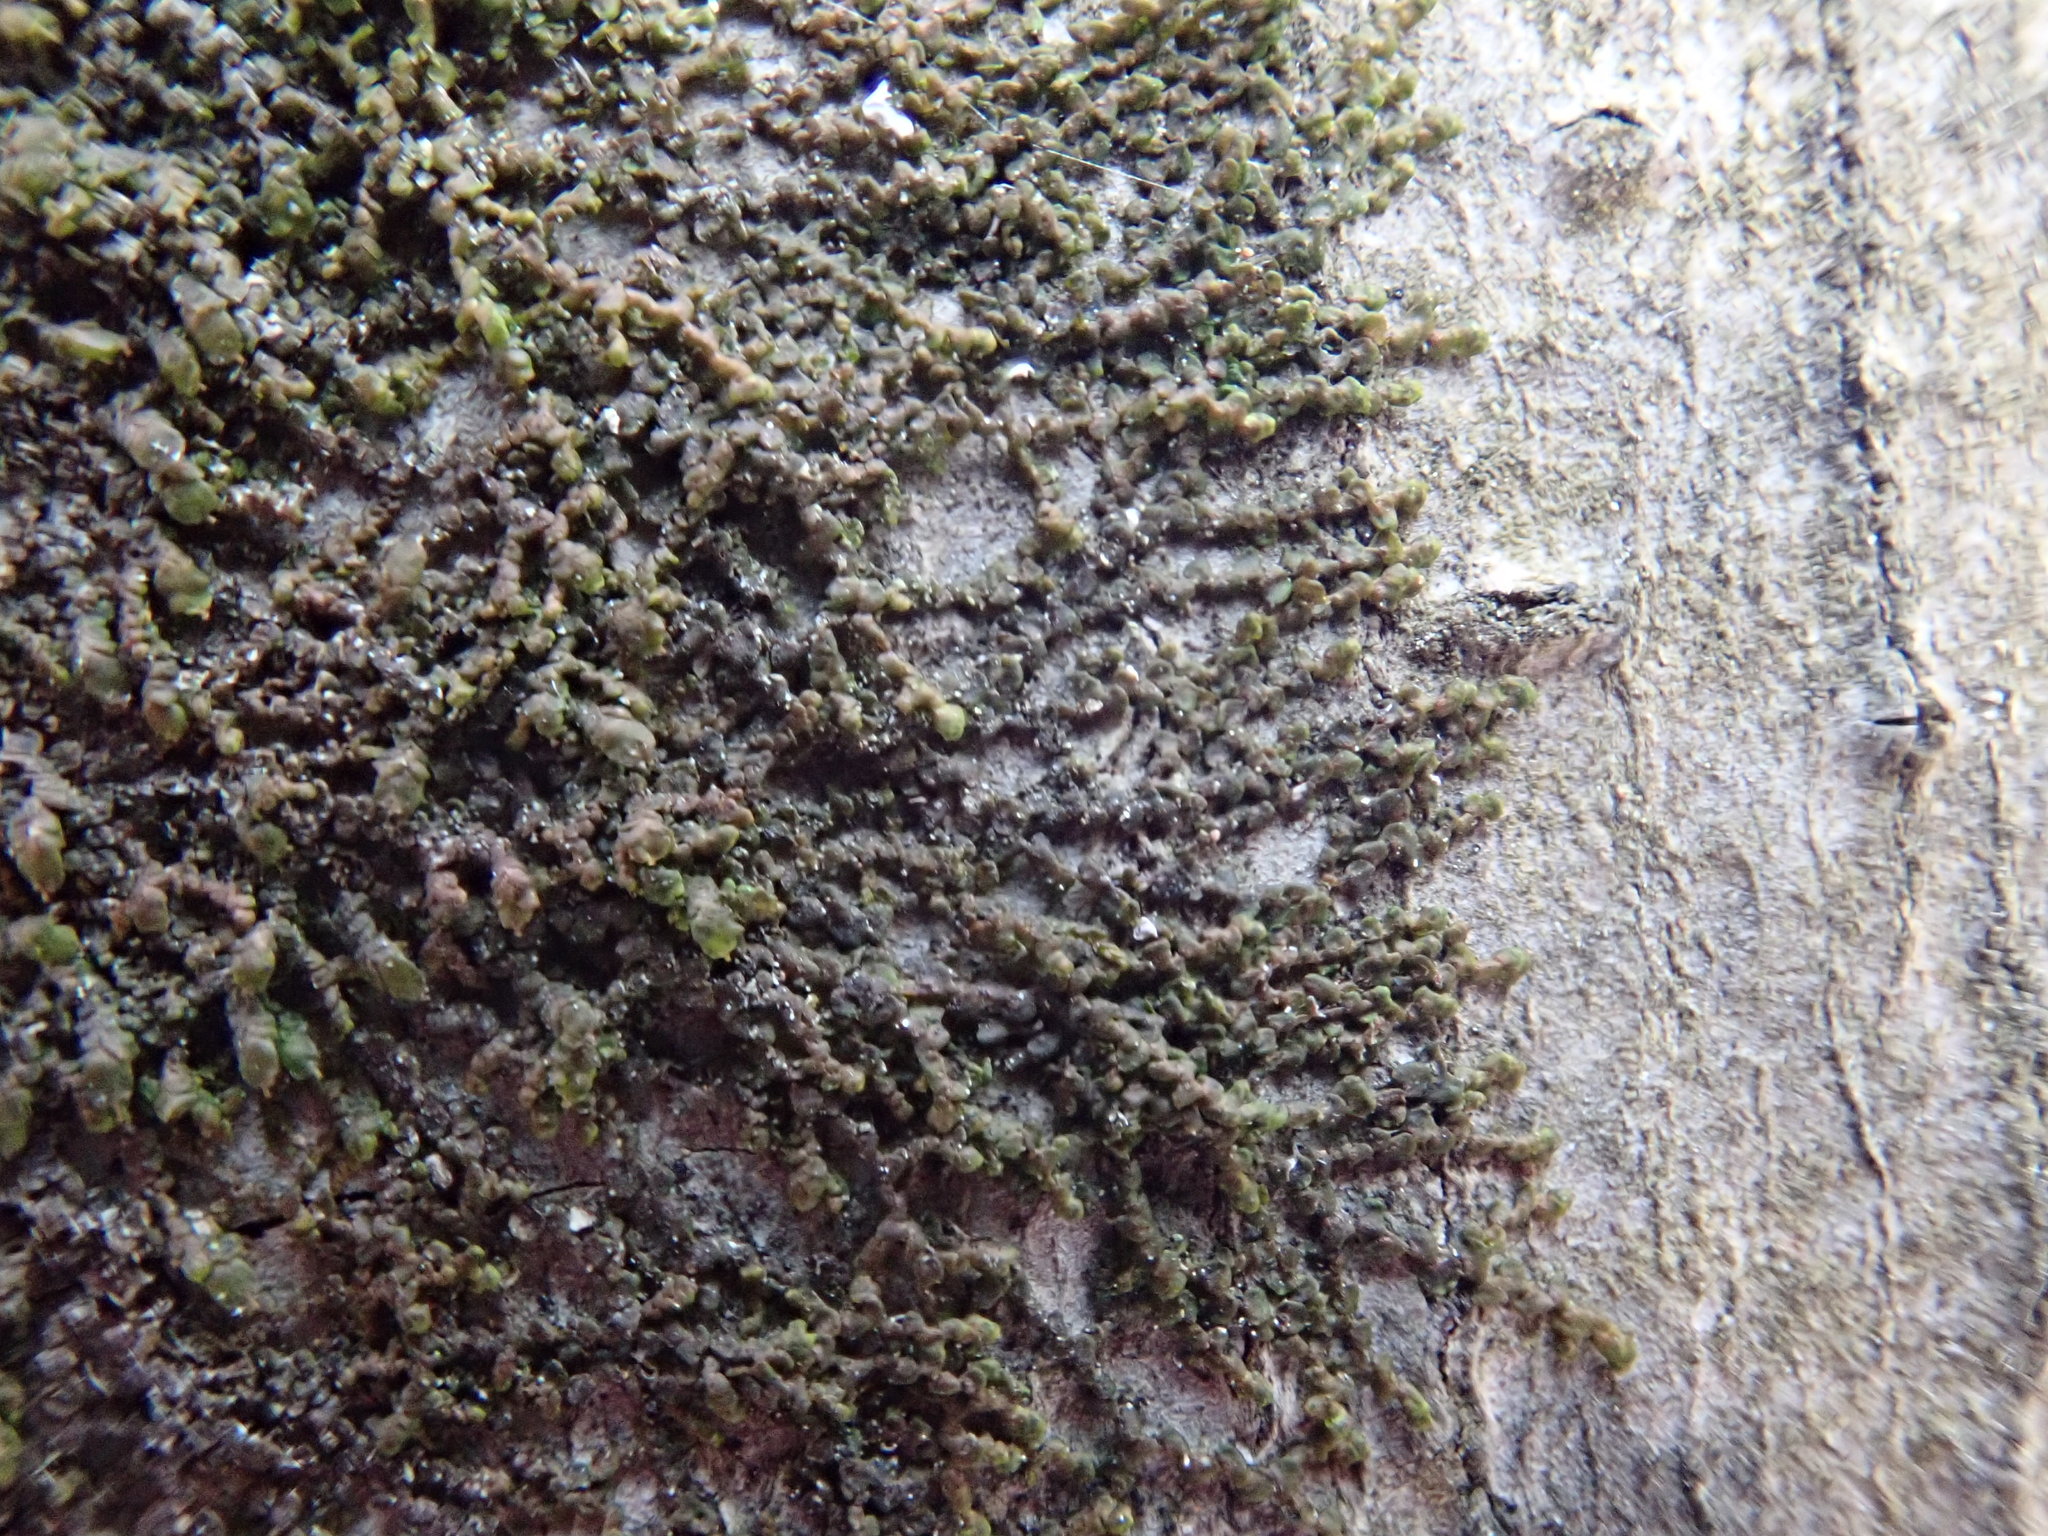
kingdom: Plantae
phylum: Marchantiophyta
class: Jungermanniopsida
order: Porellales
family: Frullaniaceae
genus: Frullania
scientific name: Frullania eboracensis
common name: New york scalewort
